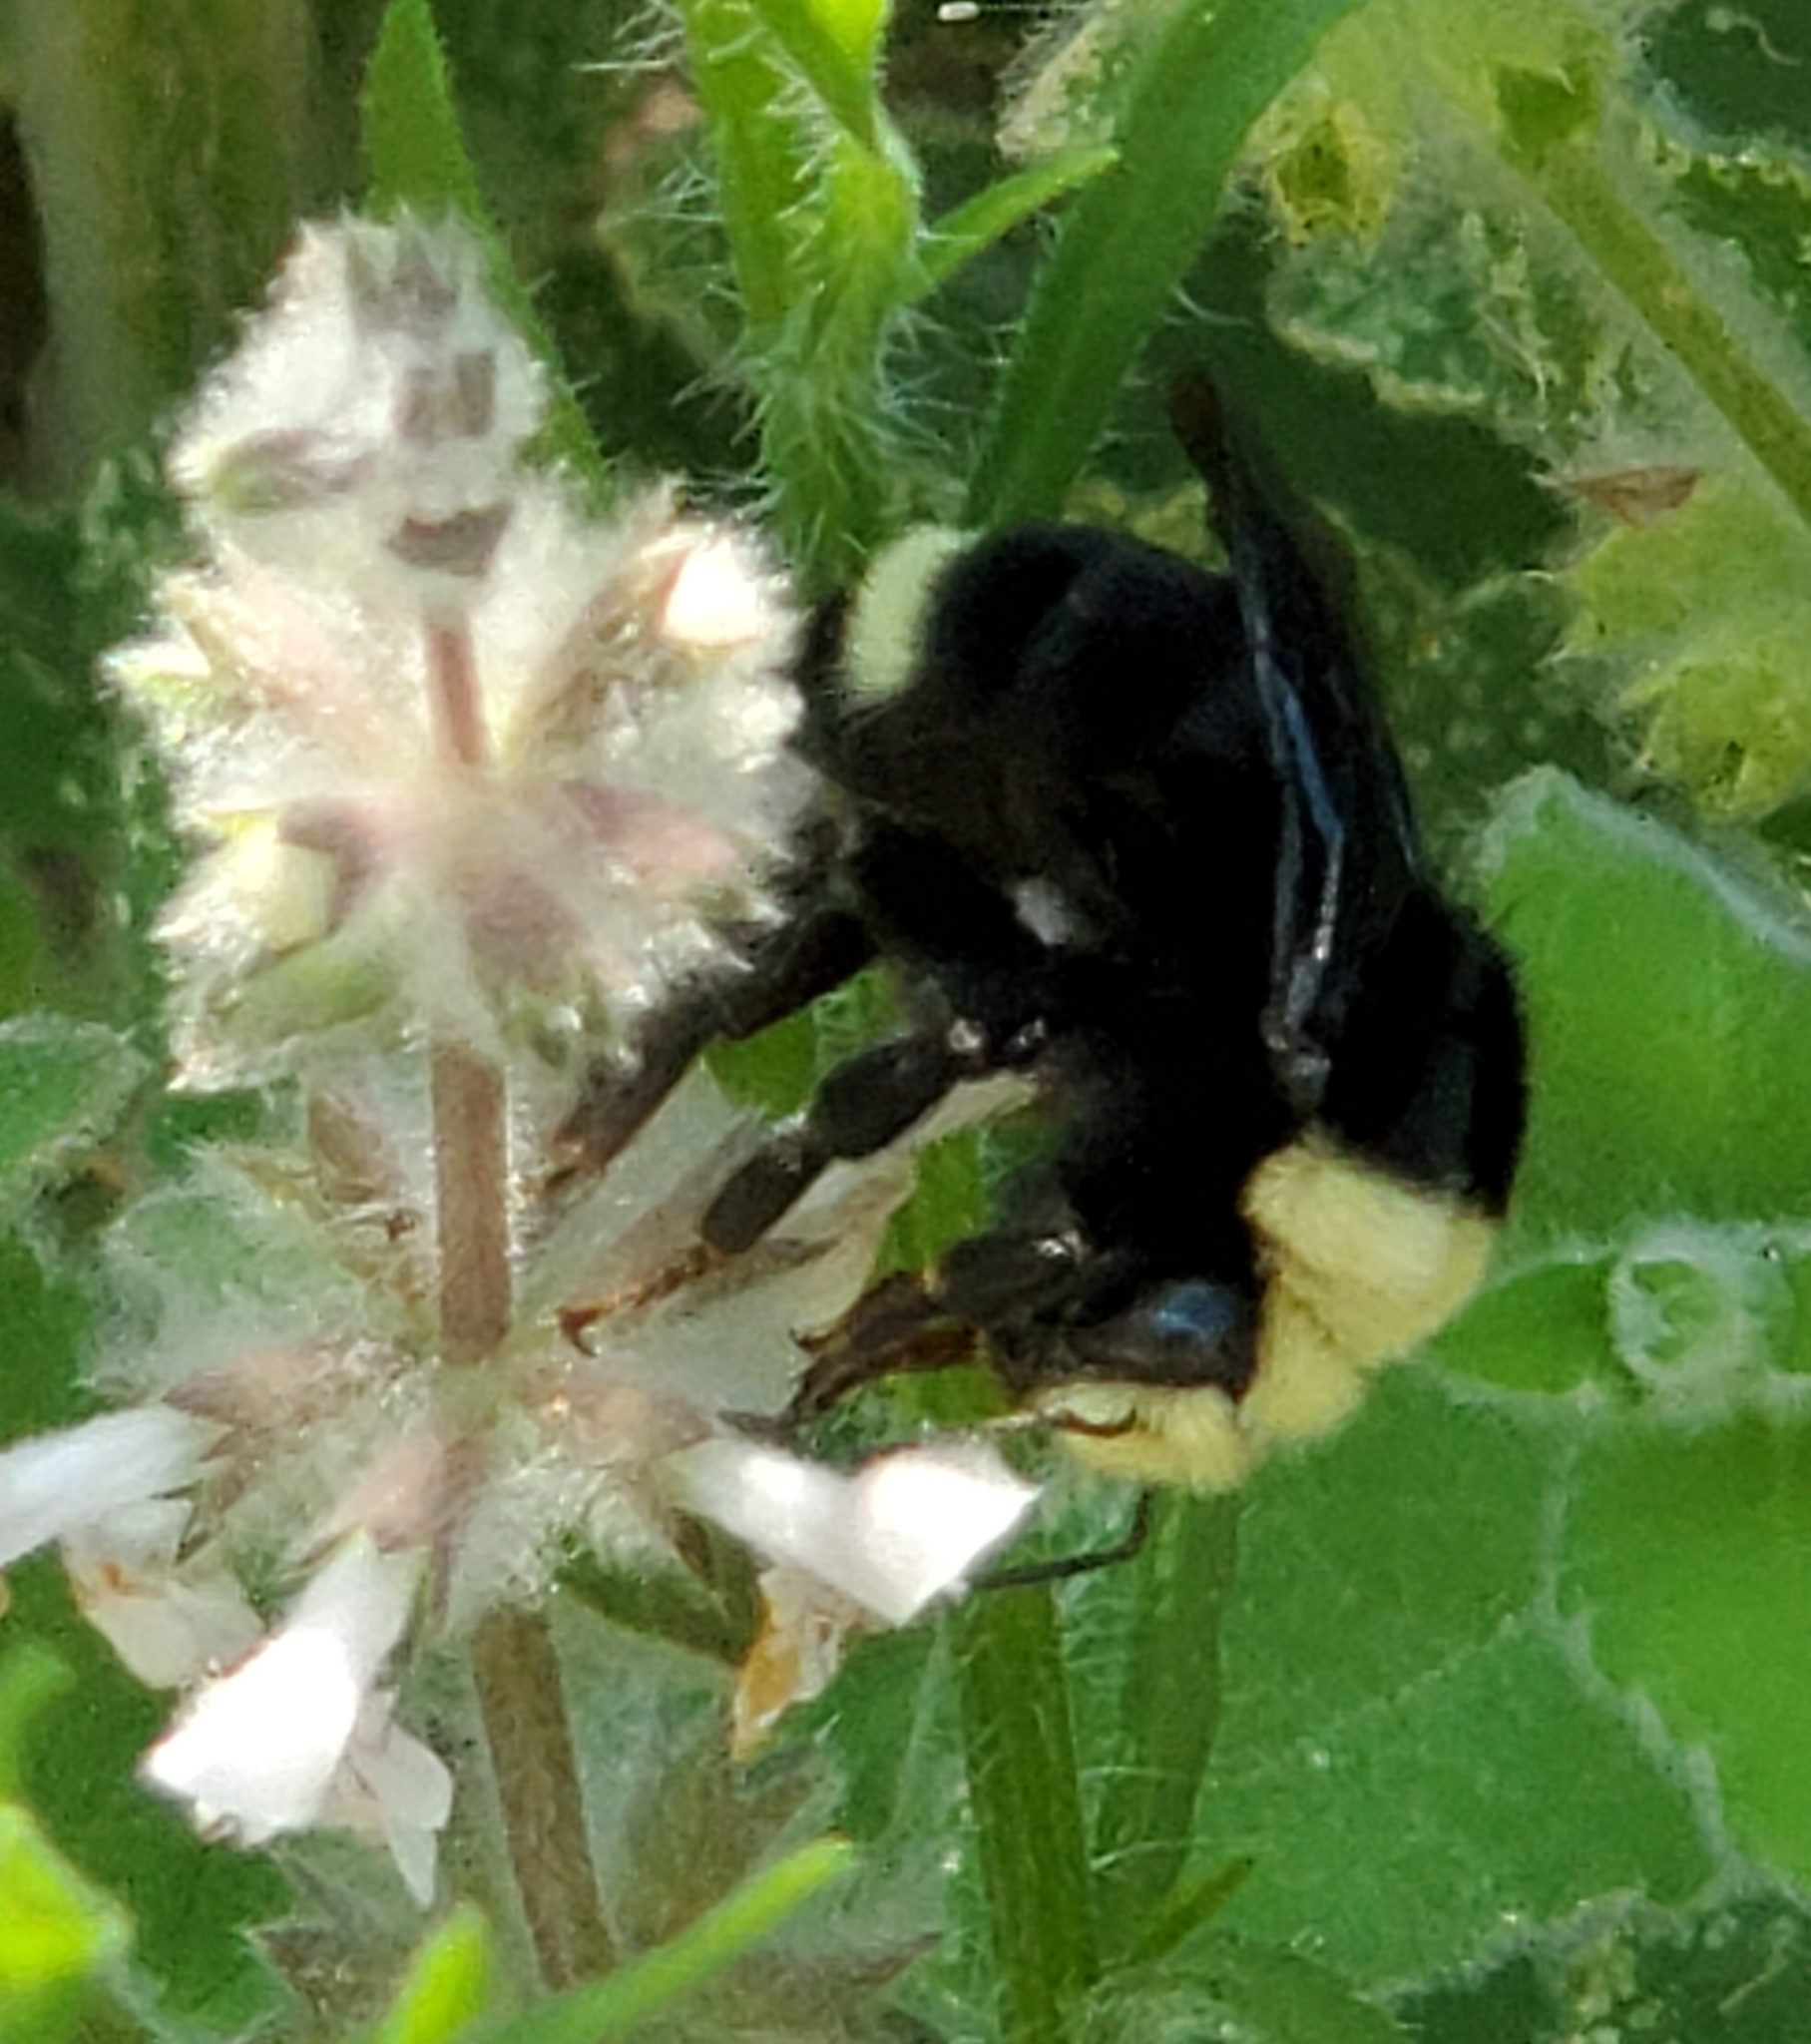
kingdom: Animalia
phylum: Arthropoda
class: Insecta
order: Hymenoptera
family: Apidae
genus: Bombus
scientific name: Bombus vosnesenskii
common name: Vosnesensky bumble bee
